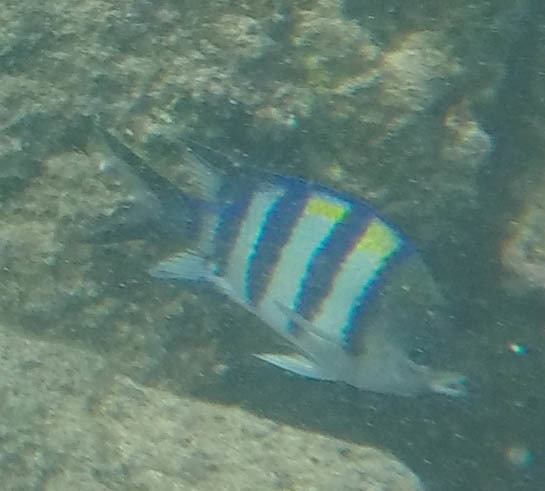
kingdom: Animalia
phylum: Chordata
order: Perciformes
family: Pomacentridae
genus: Abudefduf
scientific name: Abudefduf vaigiensis
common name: Indo-pacific sergeant
